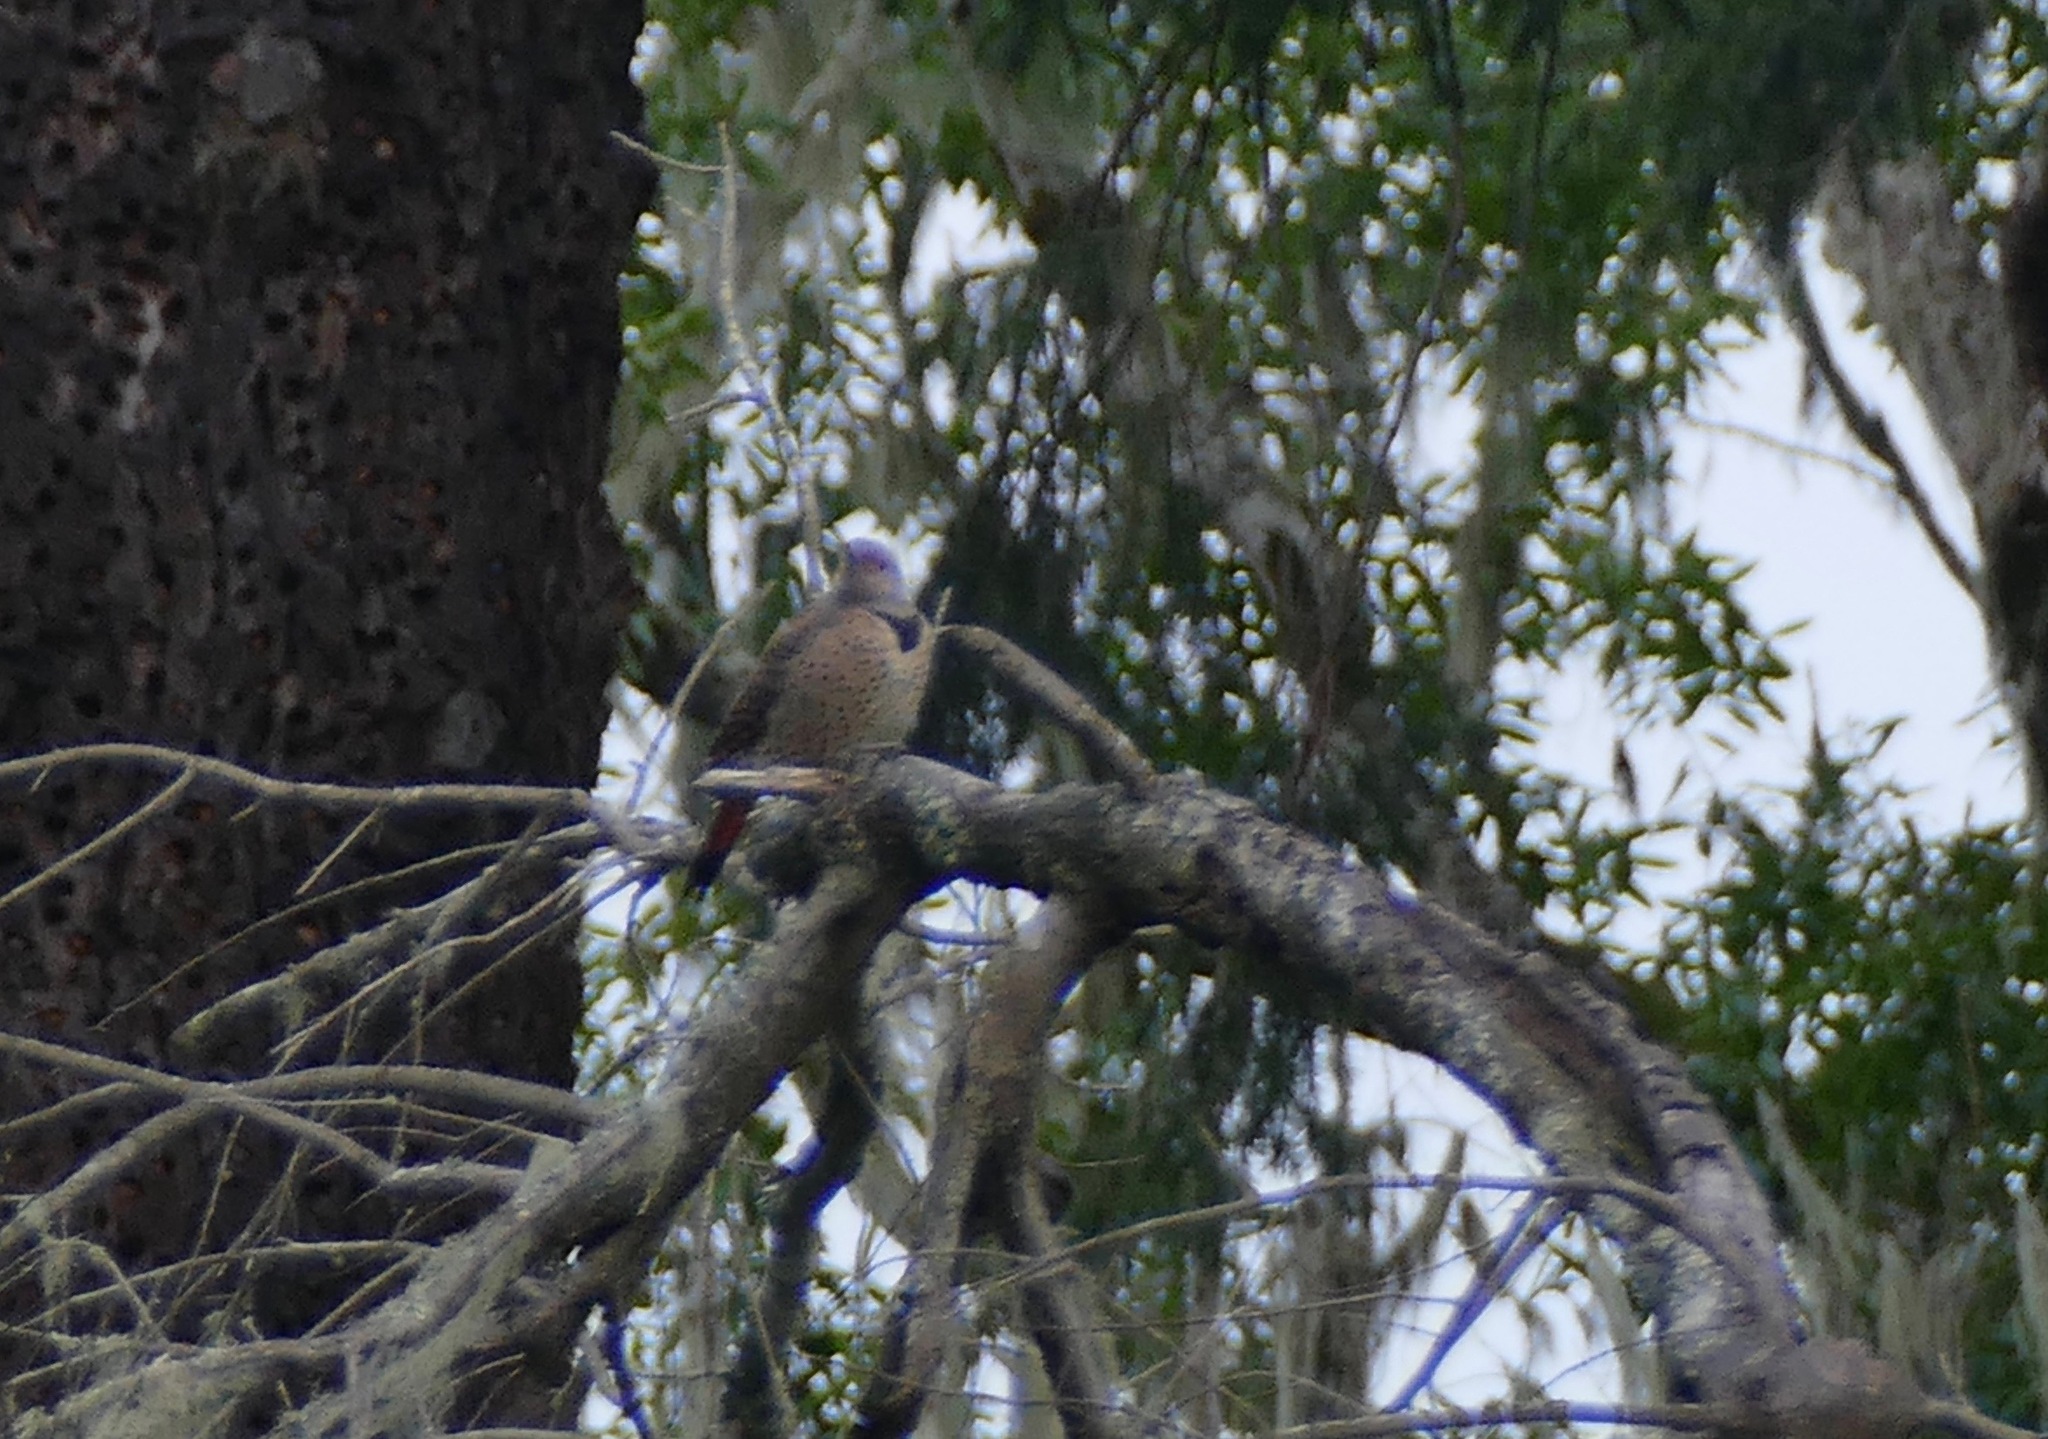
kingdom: Animalia
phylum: Chordata
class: Aves
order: Piciformes
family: Picidae
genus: Colaptes
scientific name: Colaptes auratus
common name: Northern flicker
